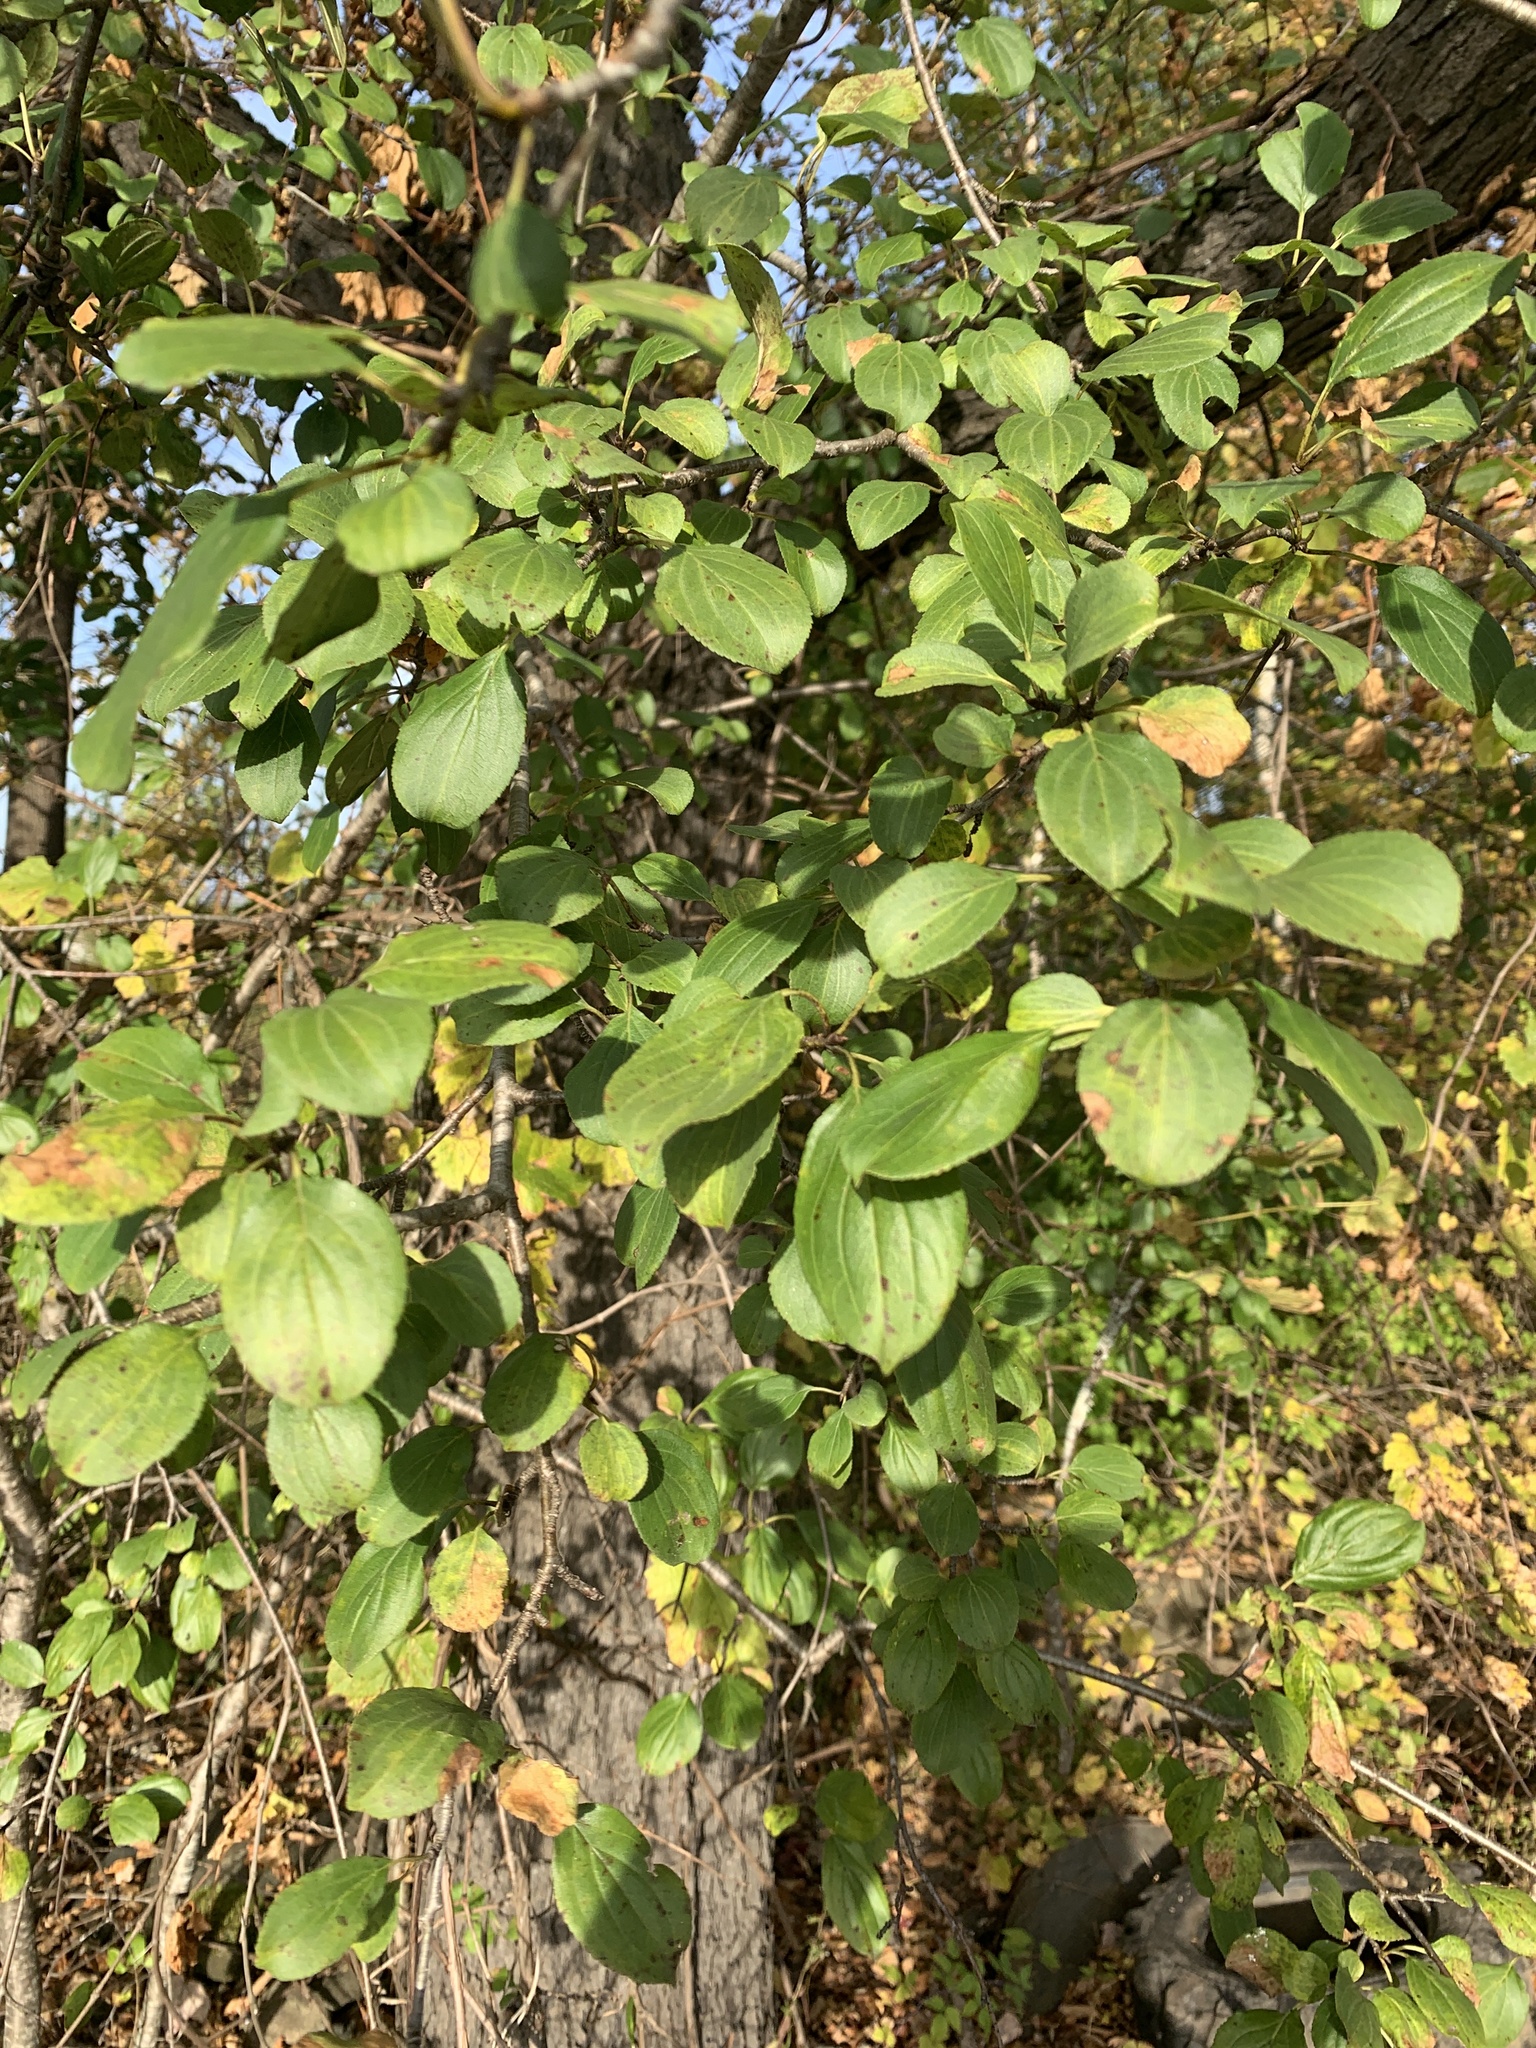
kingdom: Plantae
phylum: Tracheophyta
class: Magnoliopsida
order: Rosales
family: Rhamnaceae
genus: Rhamnus
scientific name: Rhamnus cathartica
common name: Common buckthorn
